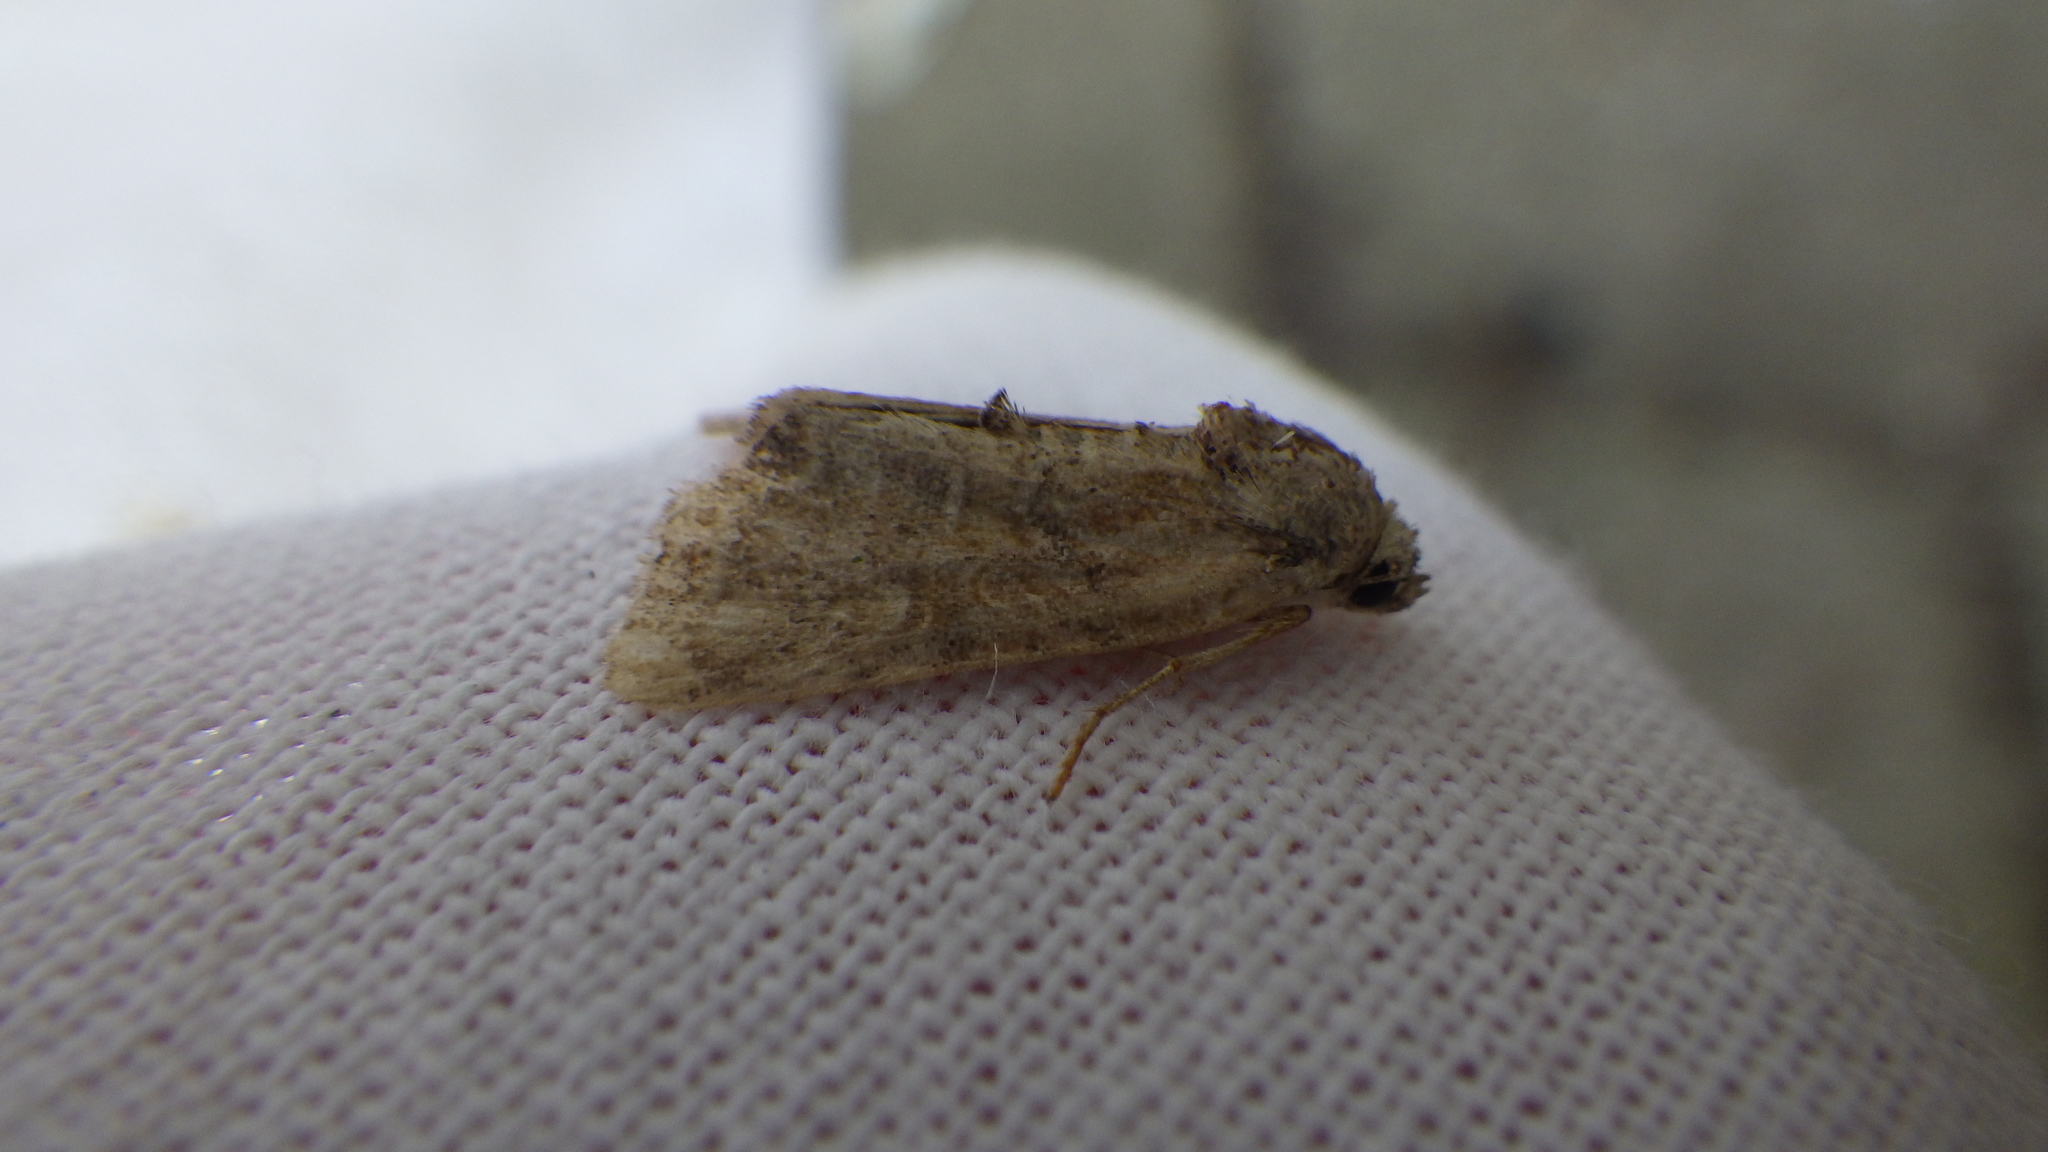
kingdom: Animalia
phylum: Arthropoda
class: Insecta
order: Lepidoptera
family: Noctuidae
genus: Mesoligia
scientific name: Mesoligia furuncula
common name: Cloaked minor
